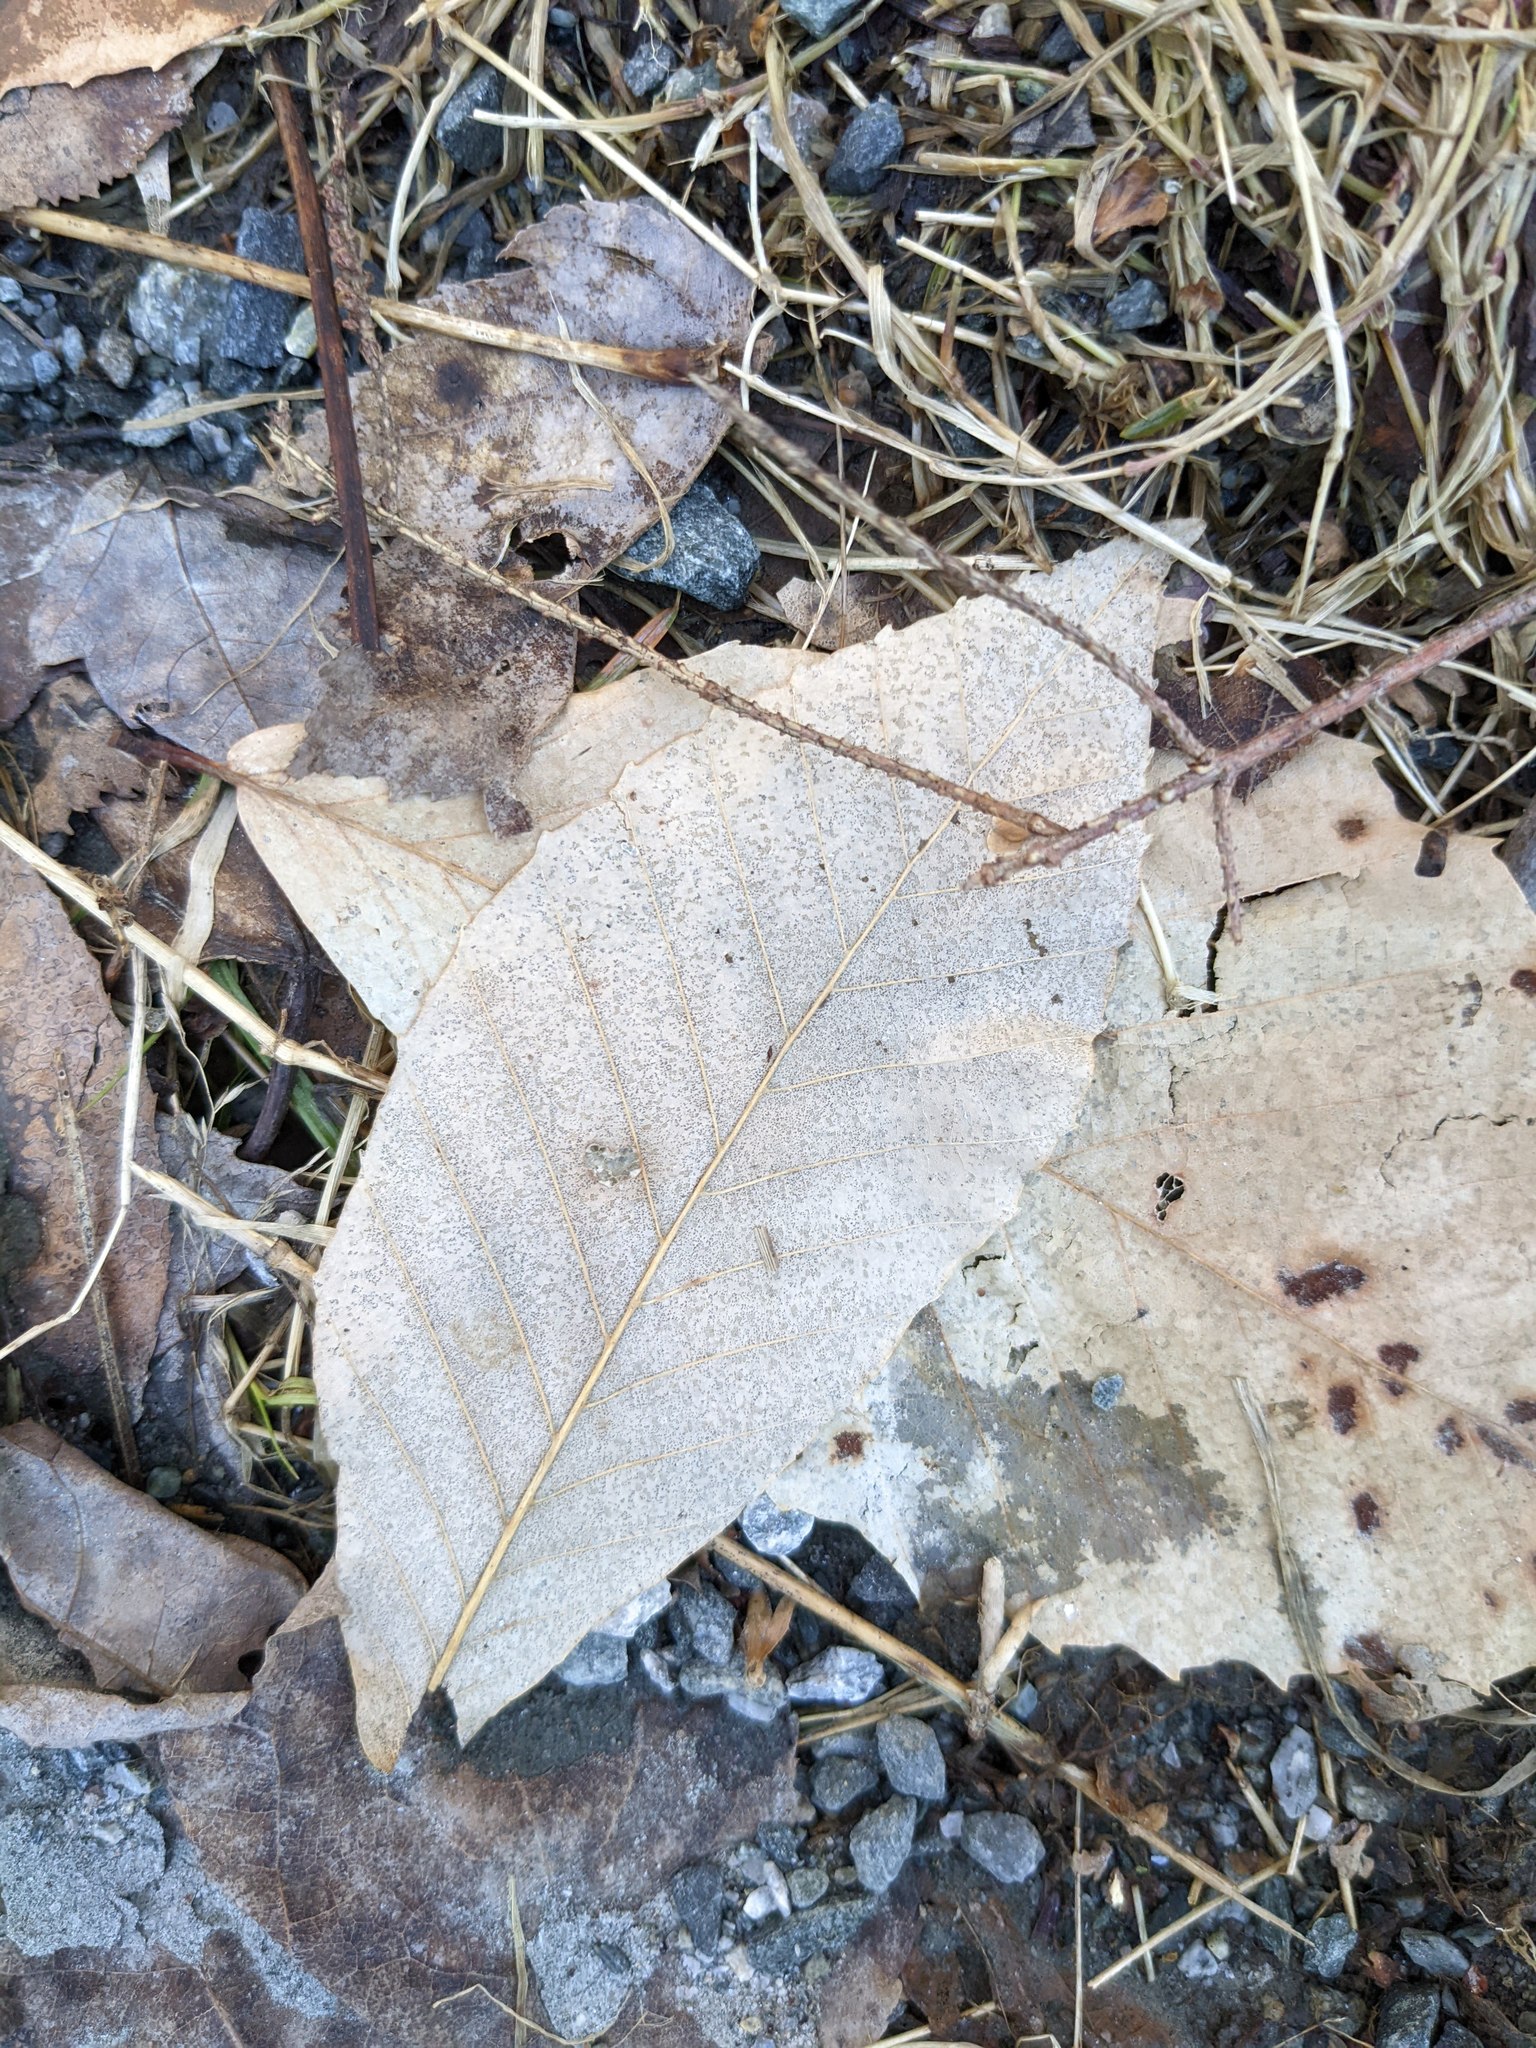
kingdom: Plantae
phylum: Tracheophyta
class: Magnoliopsida
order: Fagales
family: Fagaceae
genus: Fagus
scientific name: Fagus grandifolia
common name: American beech
